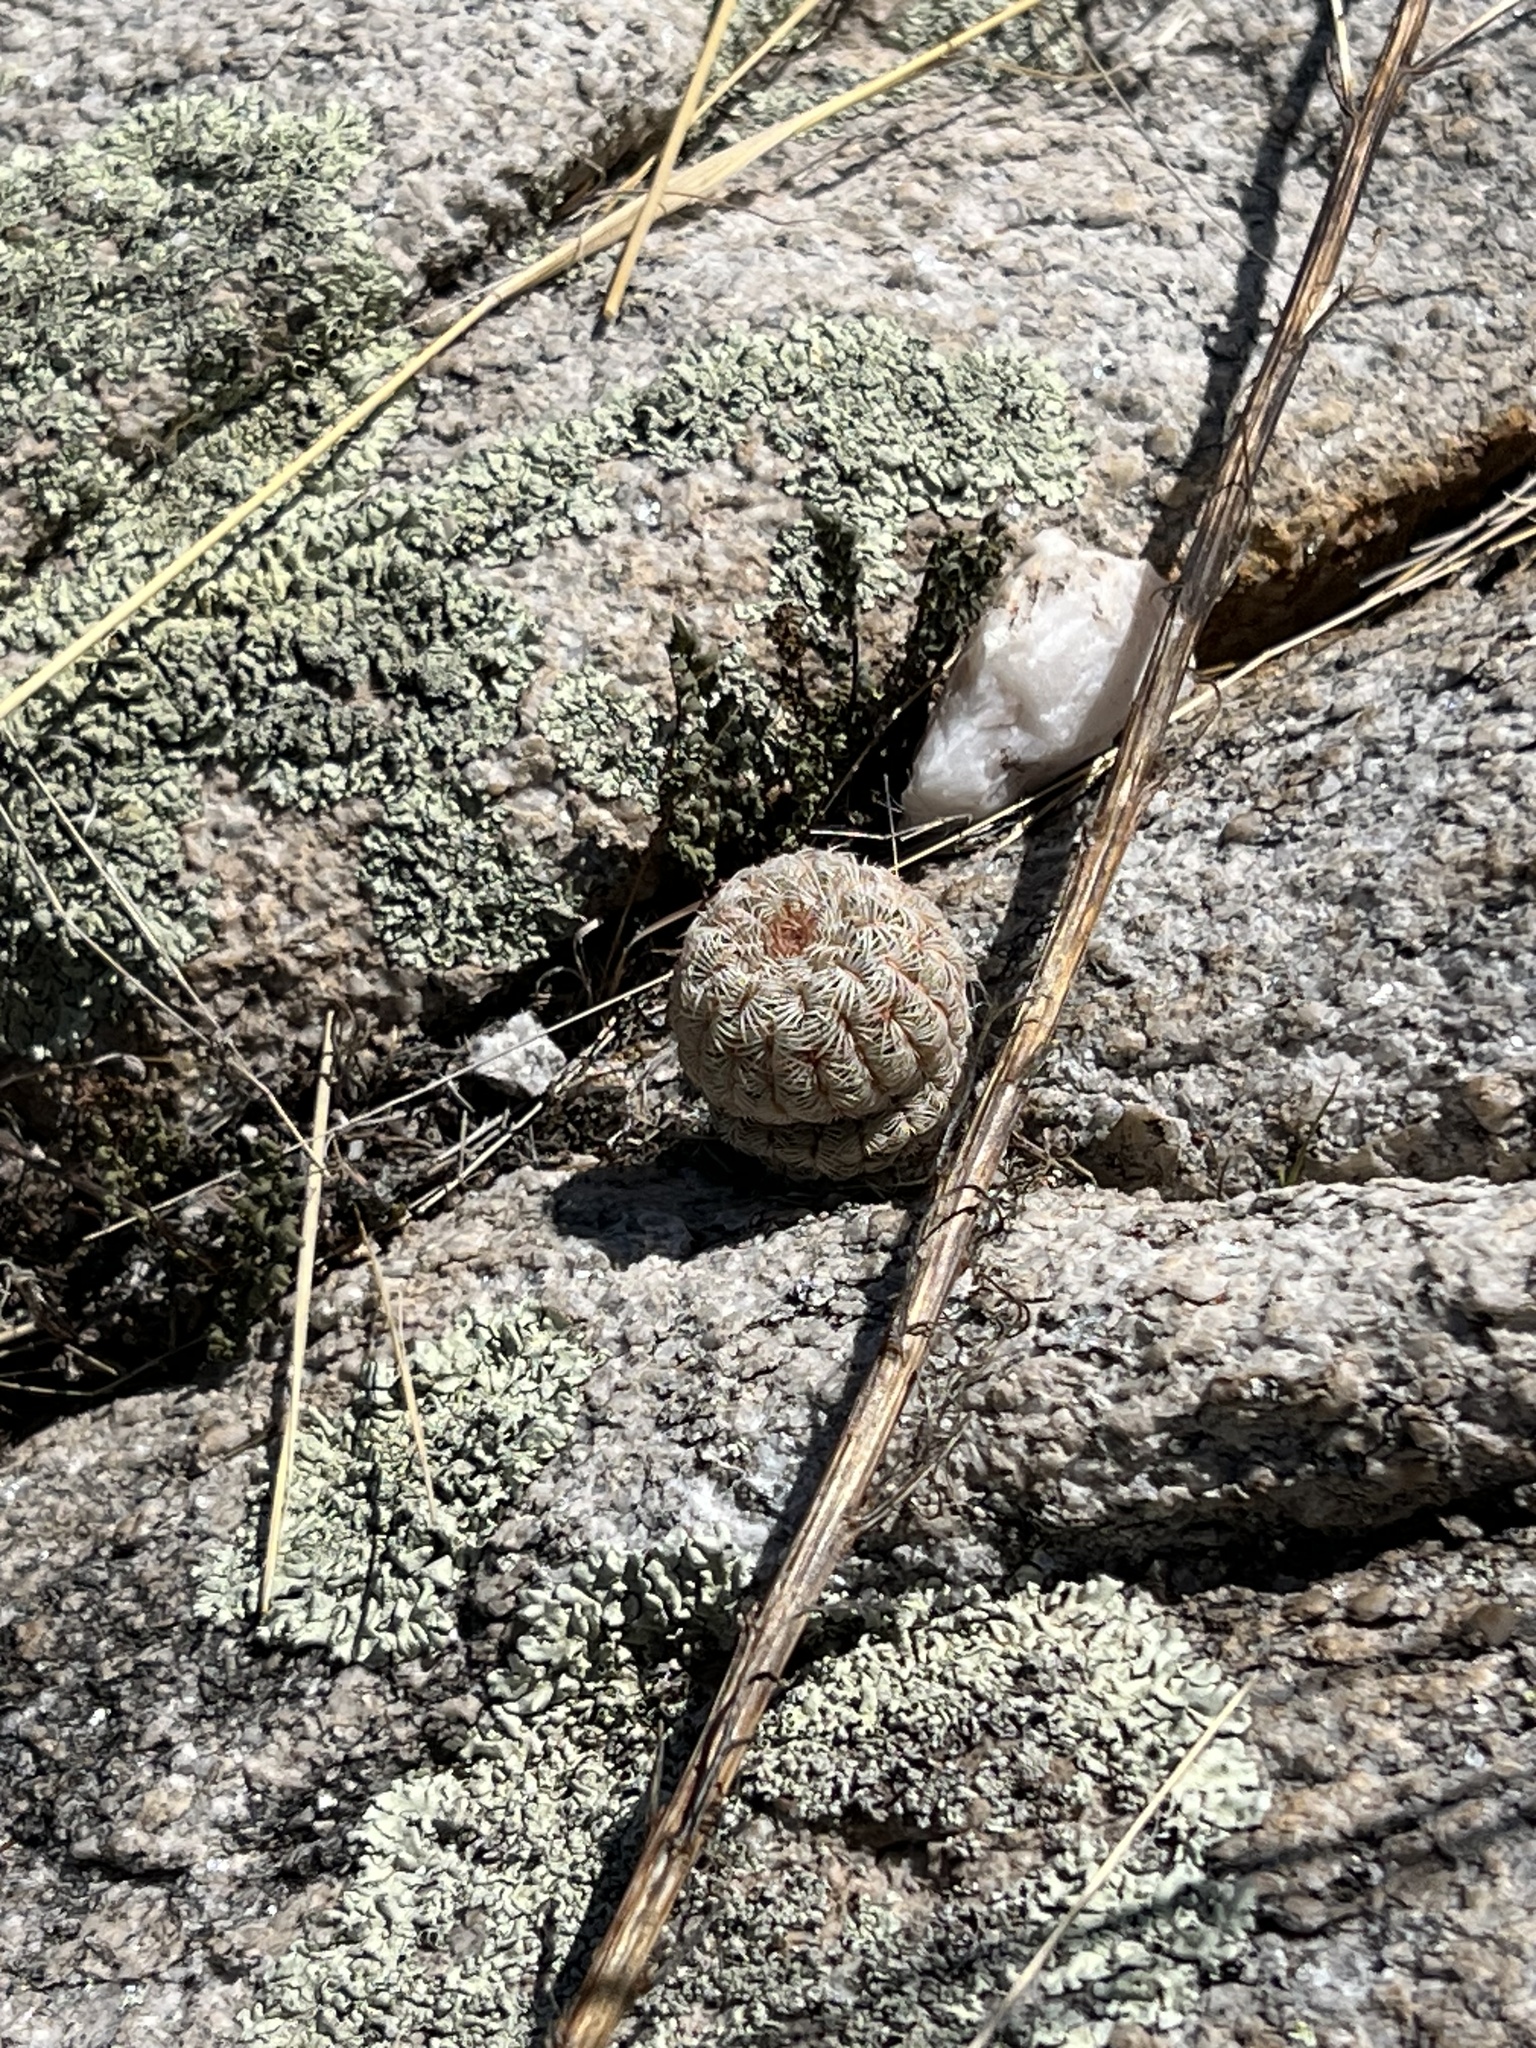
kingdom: Plantae
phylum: Tracheophyta
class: Magnoliopsida
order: Caryophyllales
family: Cactaceae
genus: Echinocereus
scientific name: Echinocereus rigidissimus
